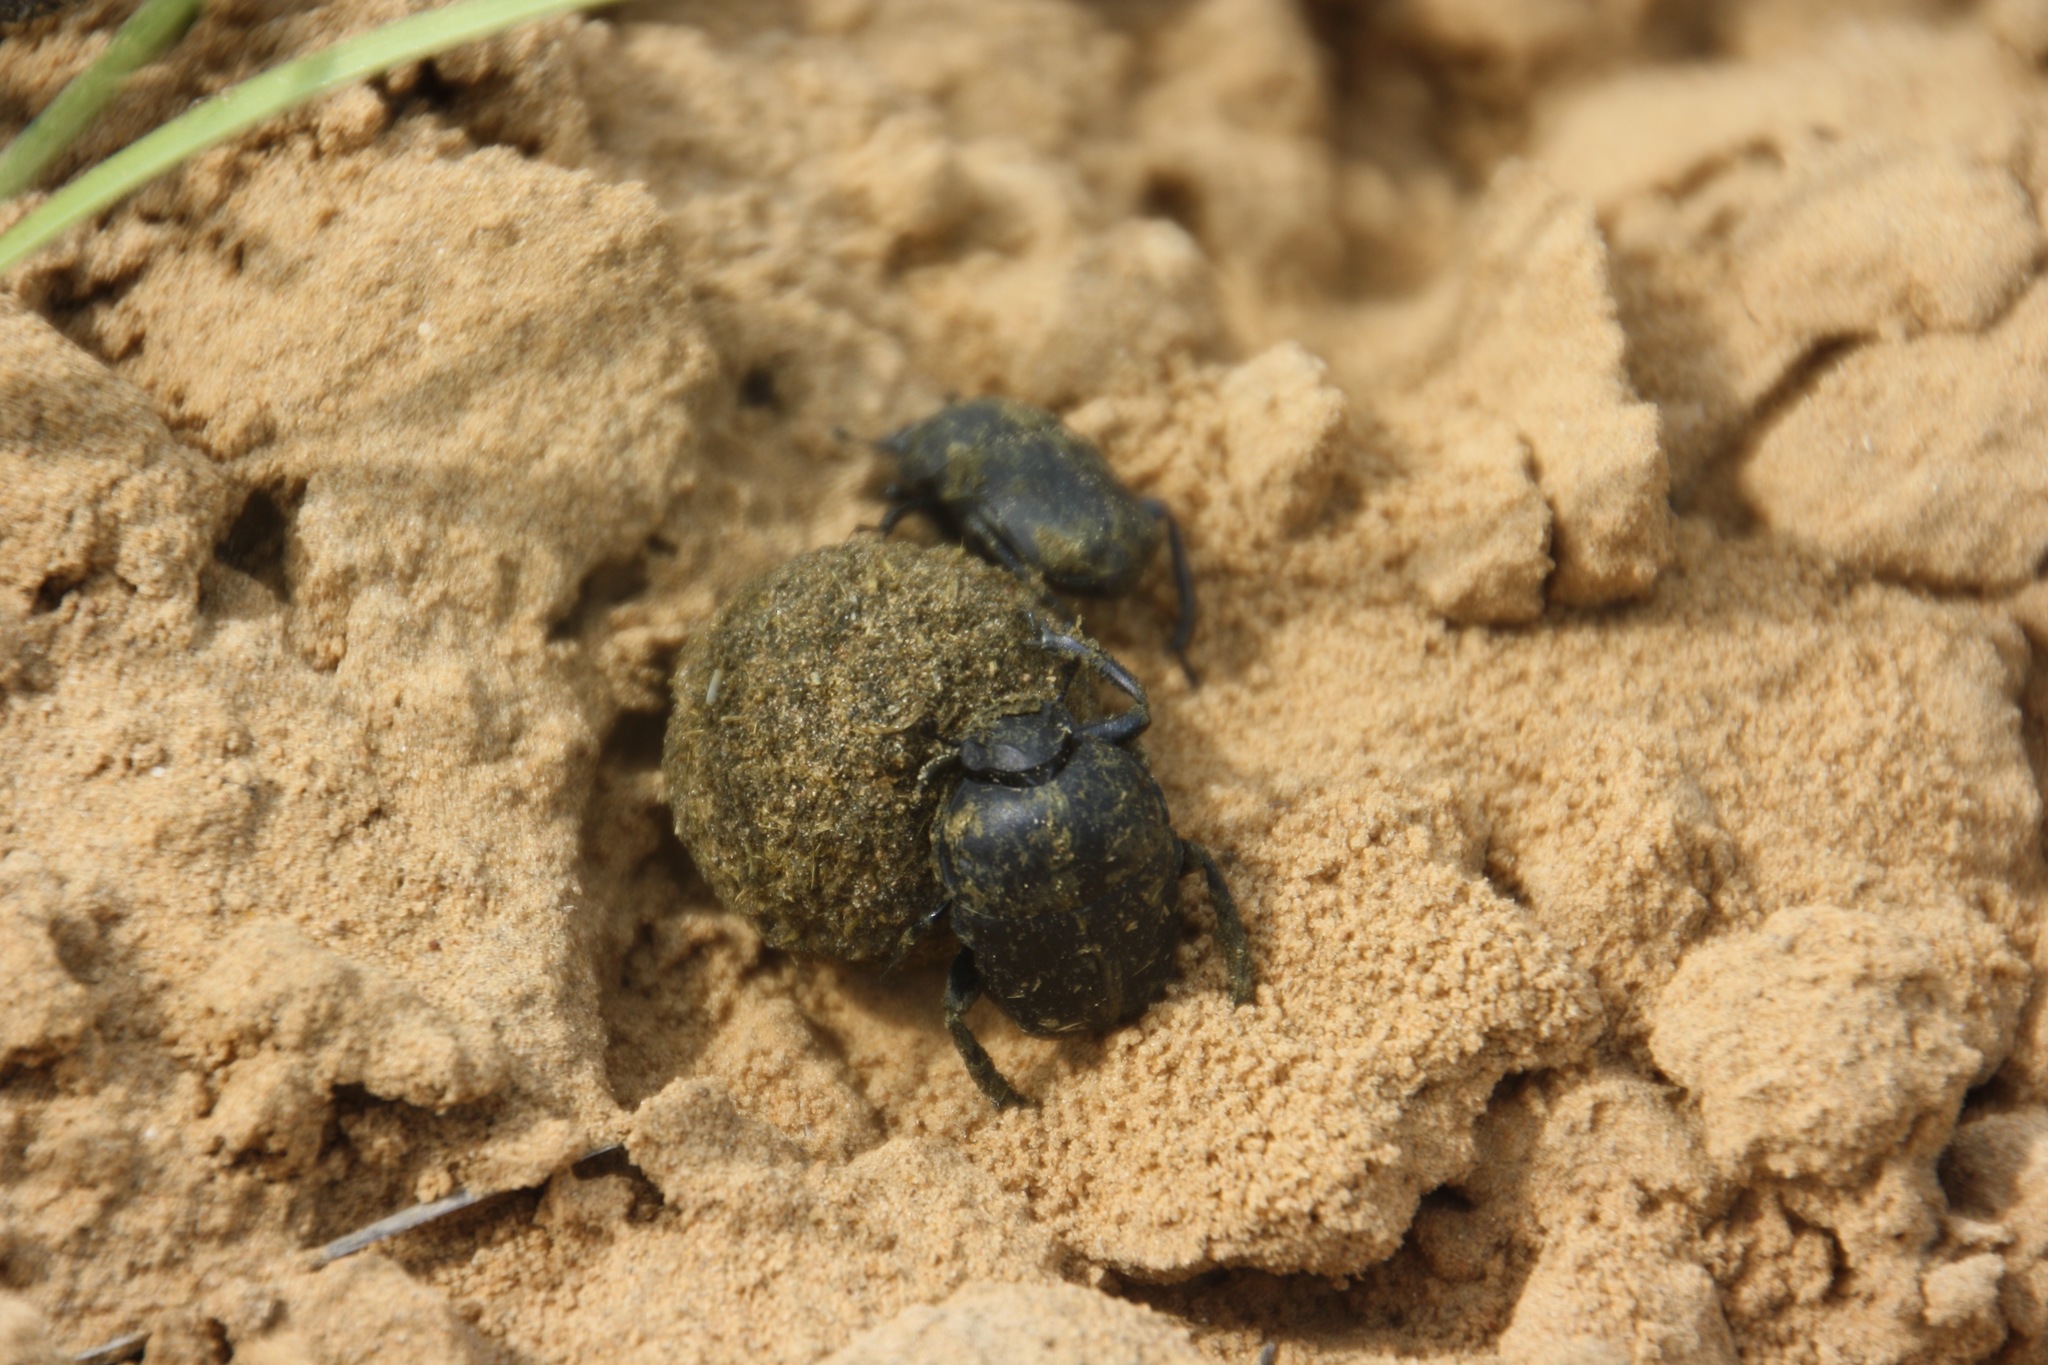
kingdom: Animalia
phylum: Arthropoda
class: Insecta
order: Coleoptera
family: Scarabaeidae
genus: Gymnopleurus
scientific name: Gymnopleurus mopsus
